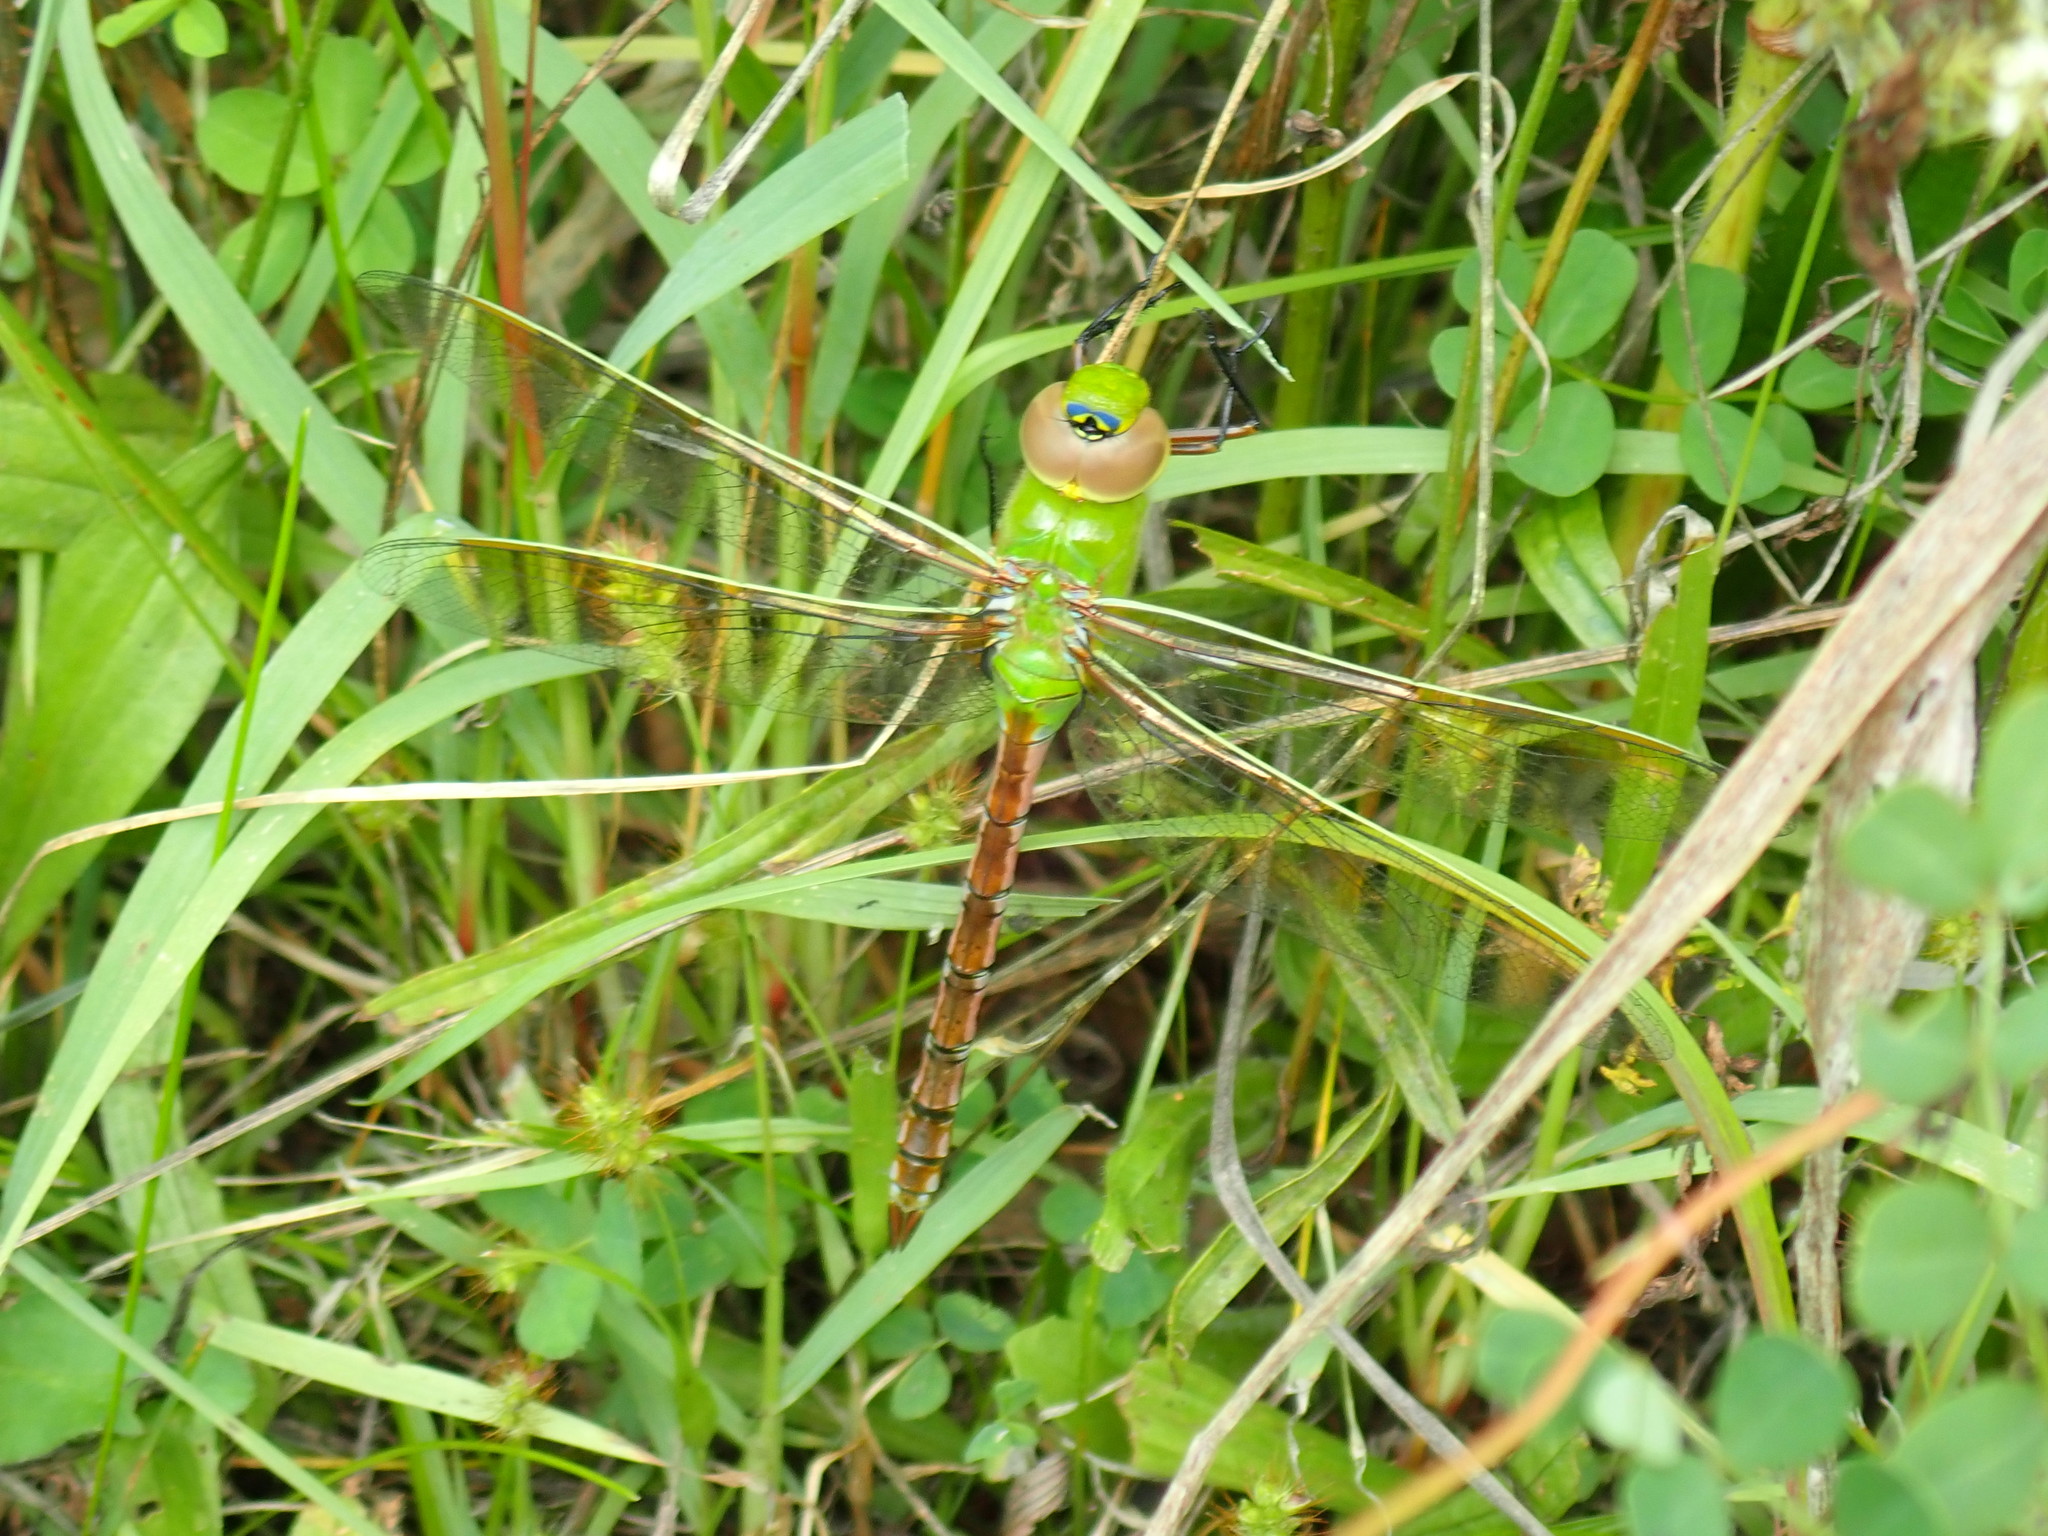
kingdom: Animalia
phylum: Arthropoda
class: Insecta
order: Odonata
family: Aeshnidae
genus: Anax
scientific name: Anax junius
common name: Common green darner
